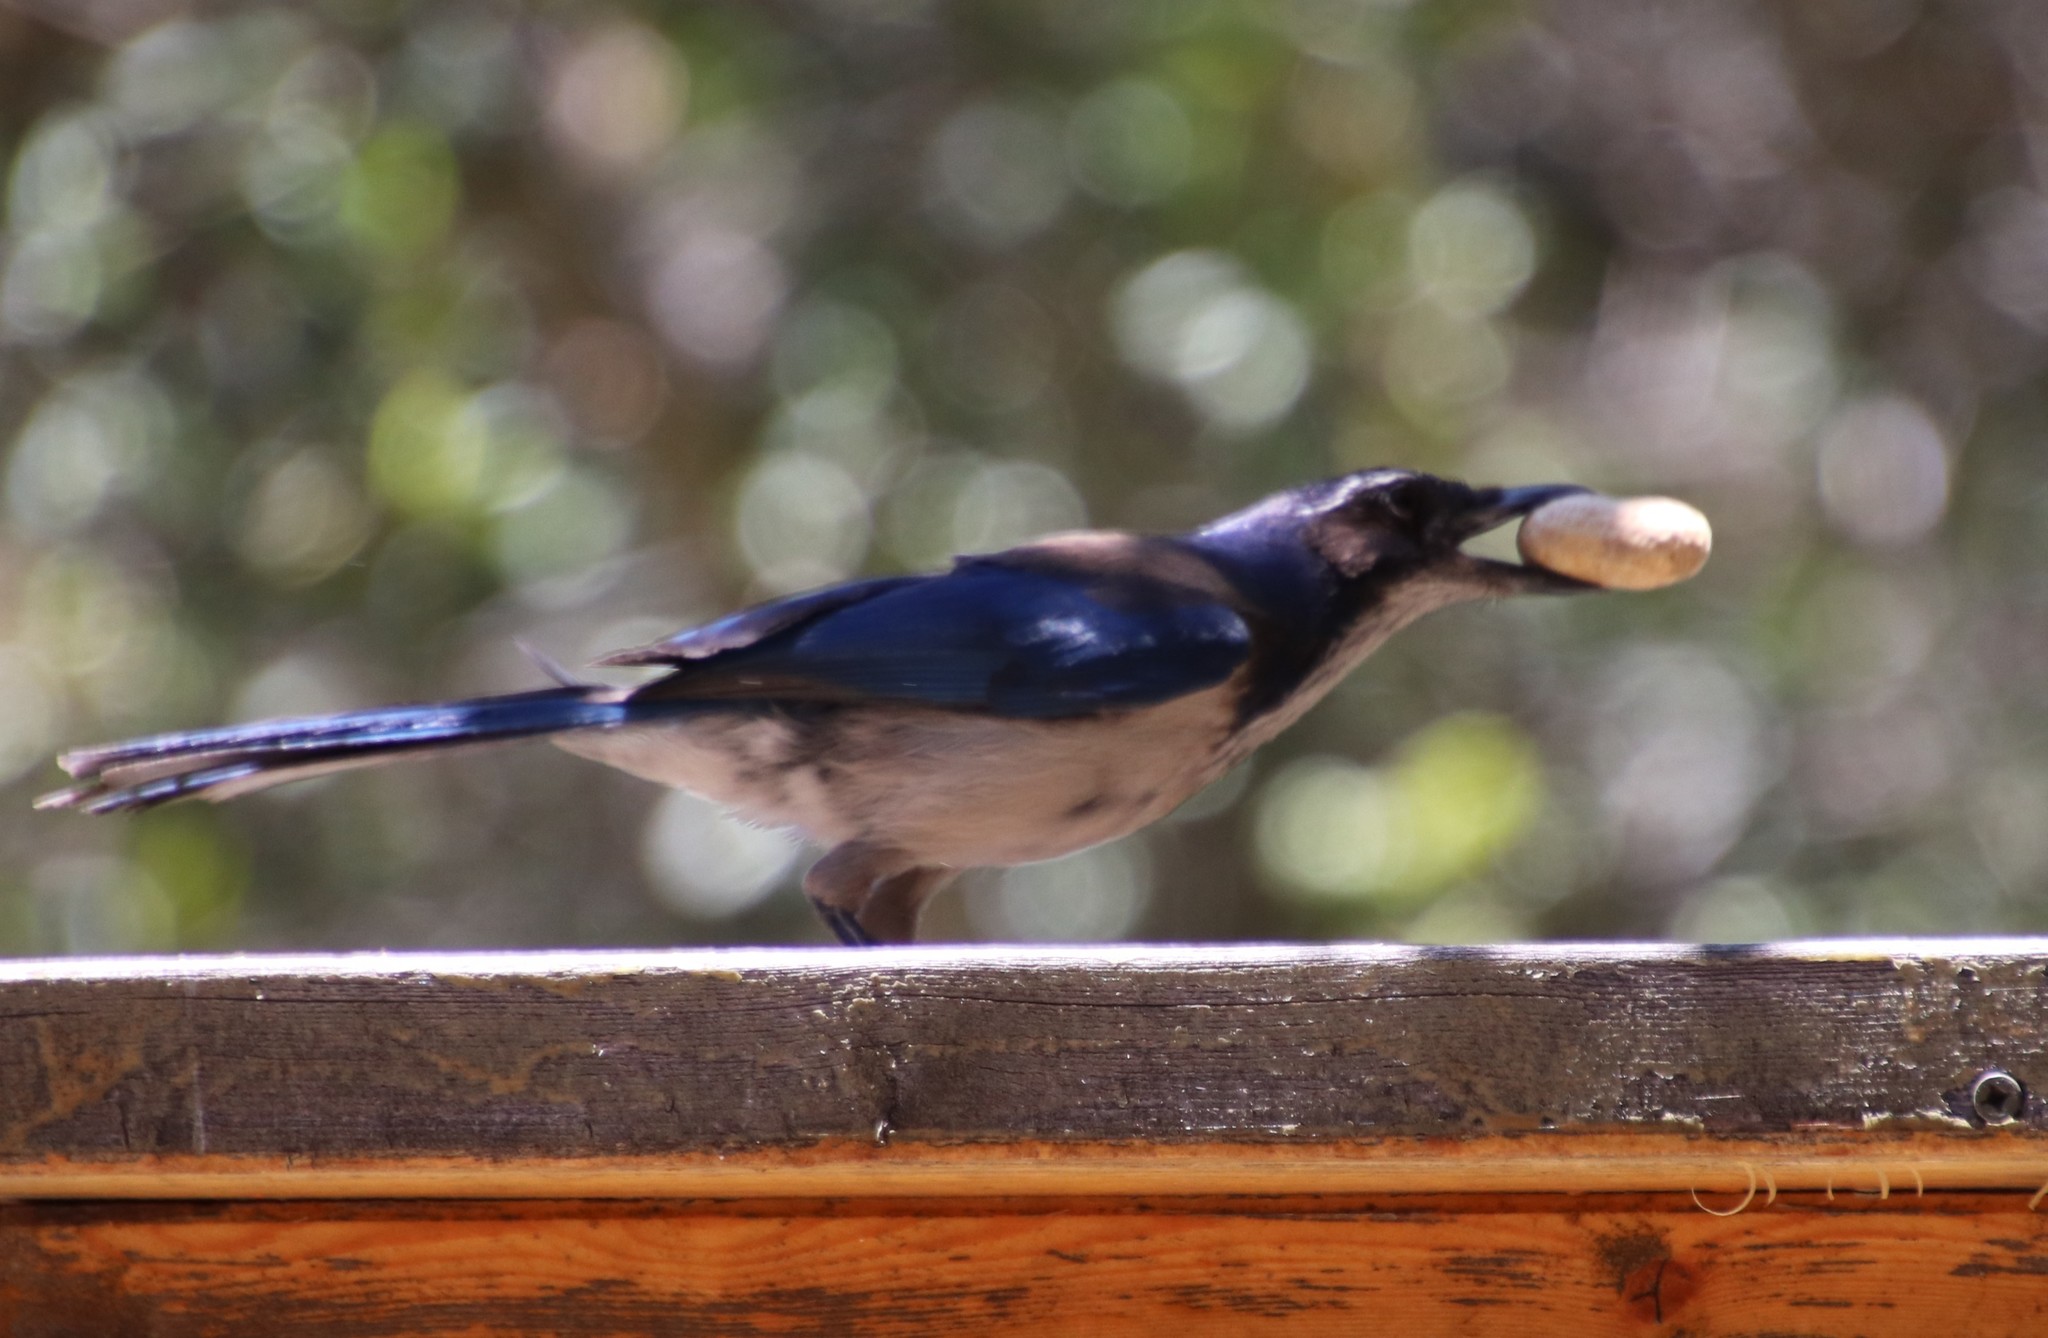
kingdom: Animalia
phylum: Chordata
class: Aves
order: Passeriformes
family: Corvidae
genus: Aphelocoma
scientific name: Aphelocoma californica
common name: California scrub-jay
